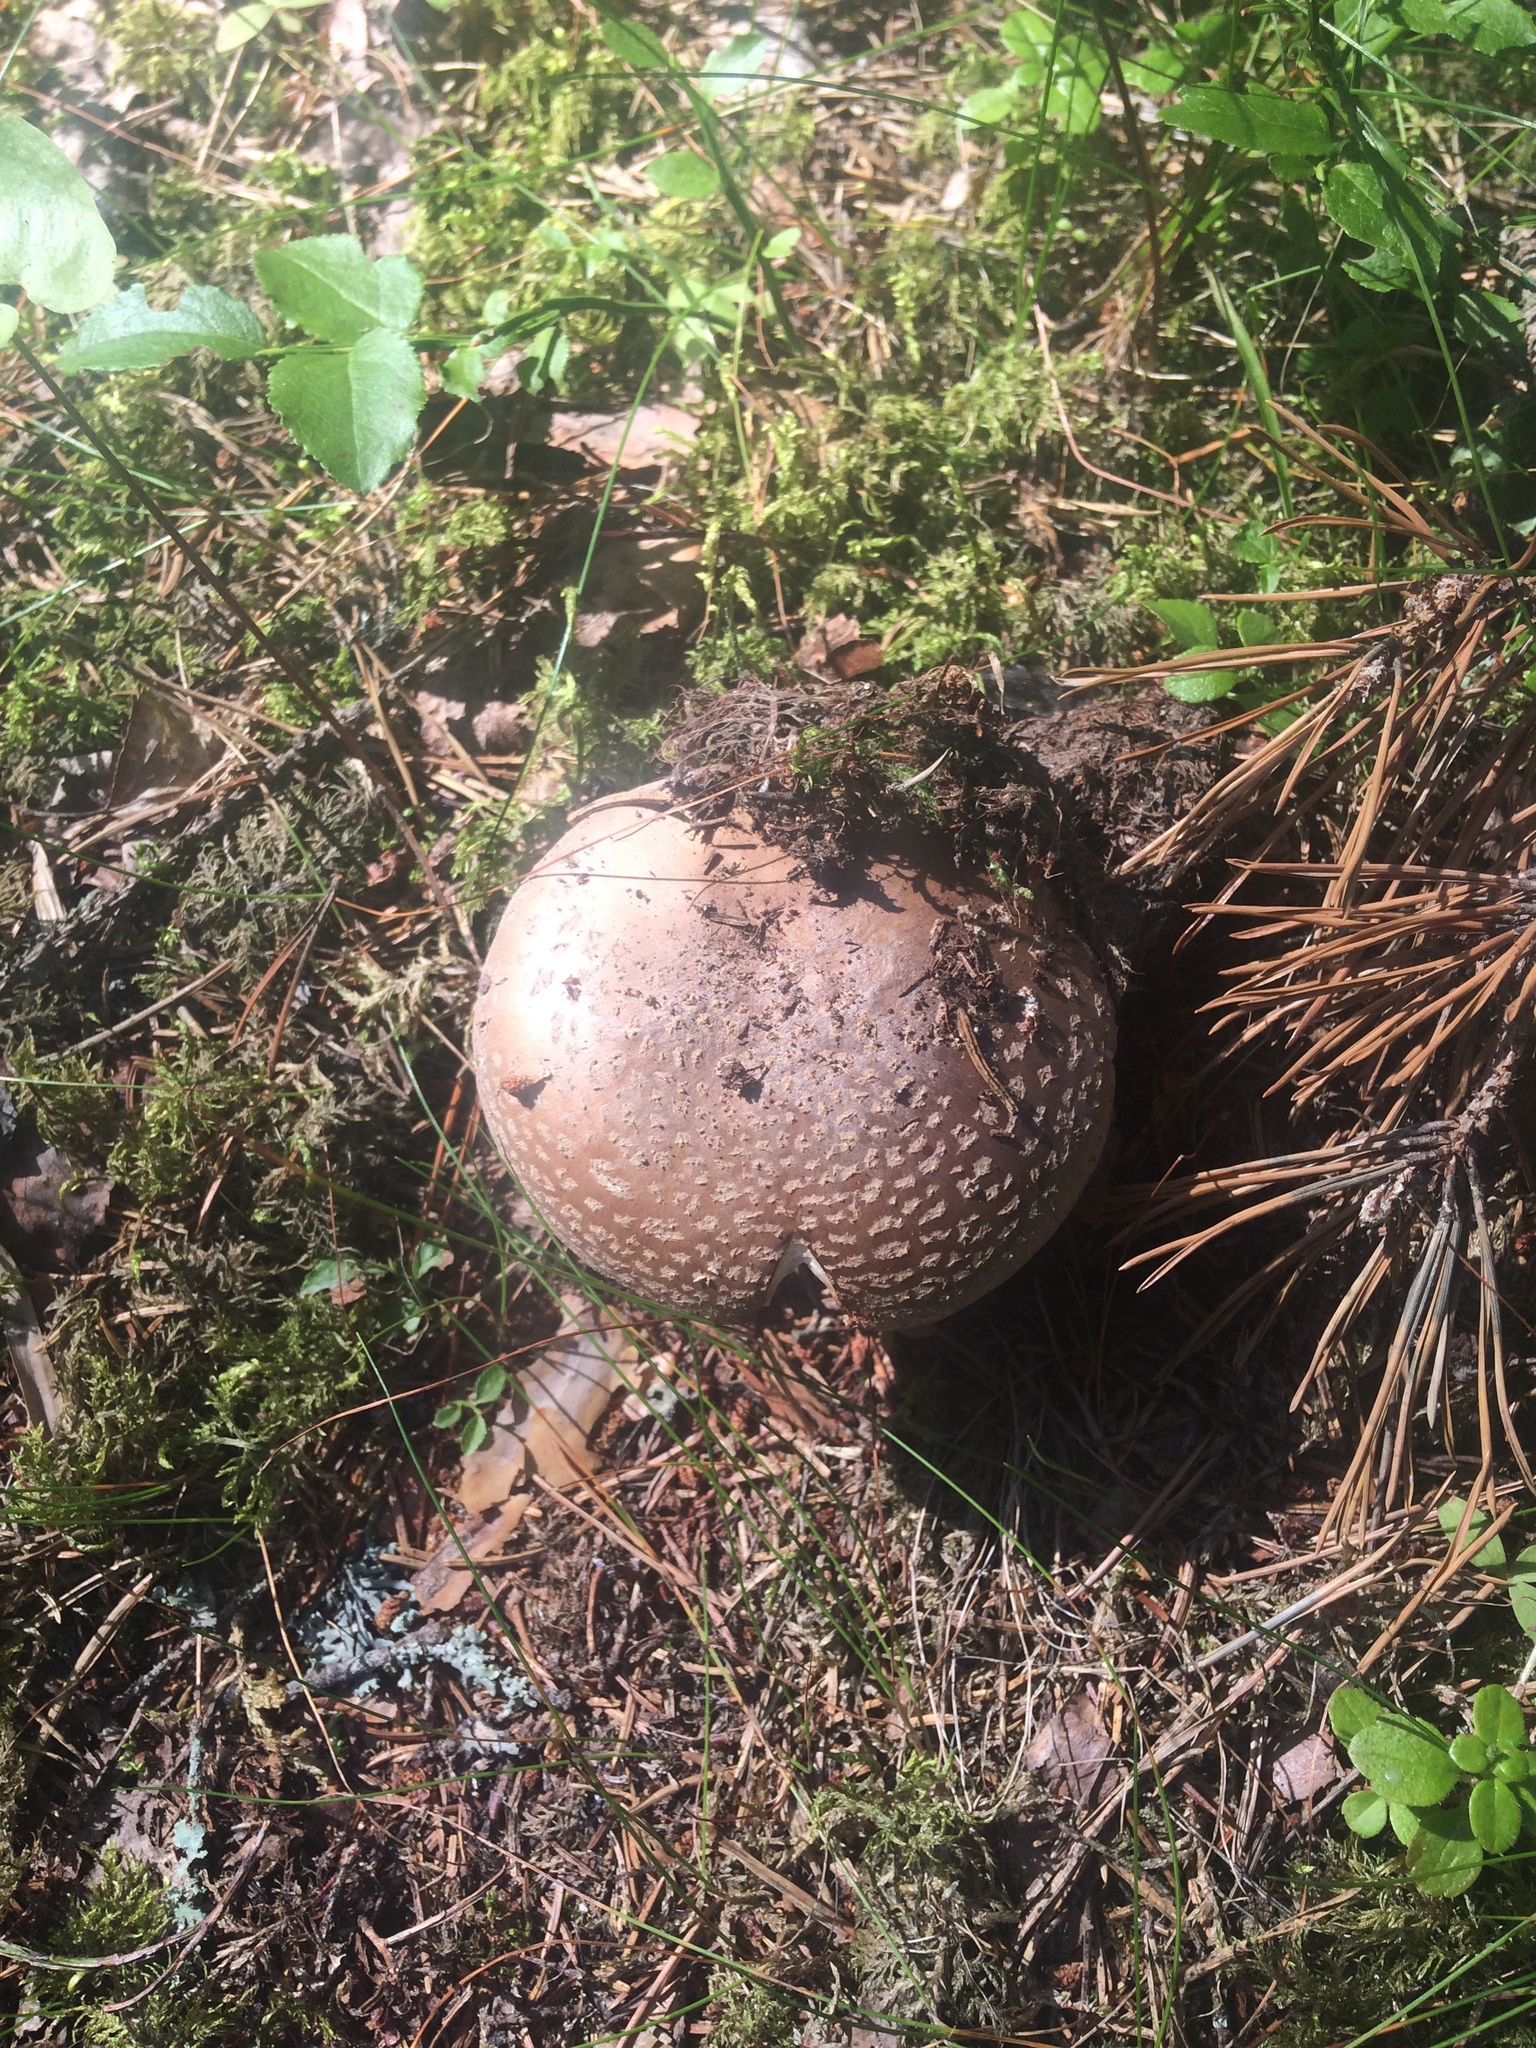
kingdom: Fungi
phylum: Basidiomycota
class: Agaricomycetes
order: Agaricales
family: Amanitaceae
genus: Amanita
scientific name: Amanita rubescens
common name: Blusher
